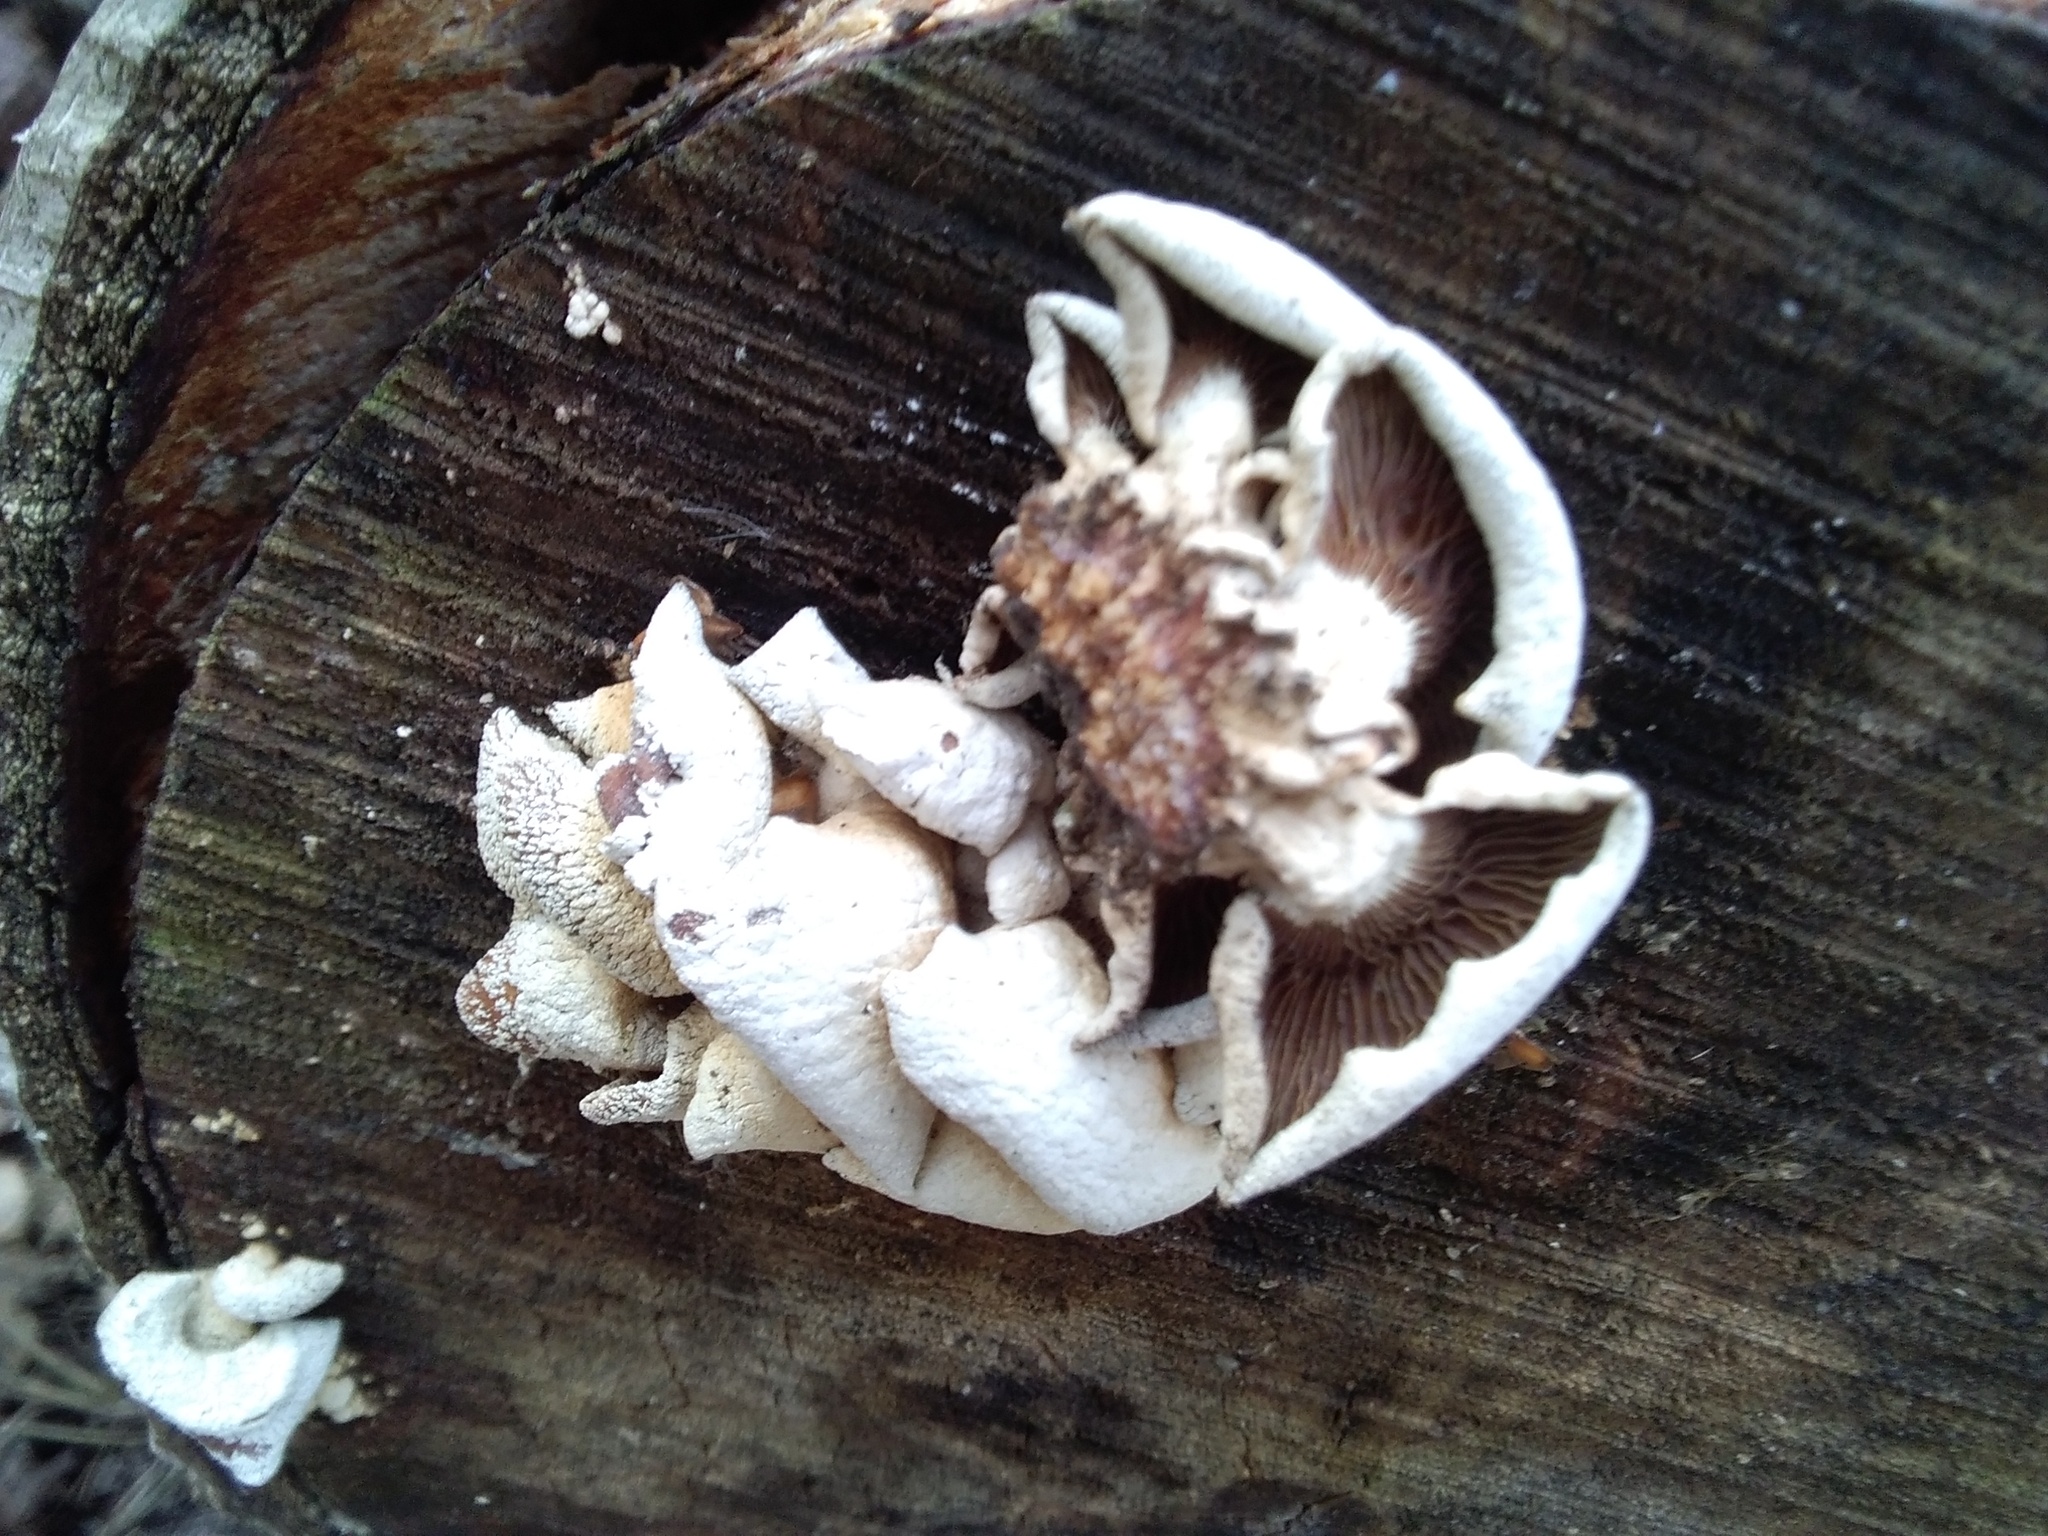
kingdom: Fungi
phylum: Basidiomycota
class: Agaricomycetes
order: Agaricales
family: Mycenaceae
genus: Panellus
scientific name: Panellus stipticus
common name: Bitter oysterling
